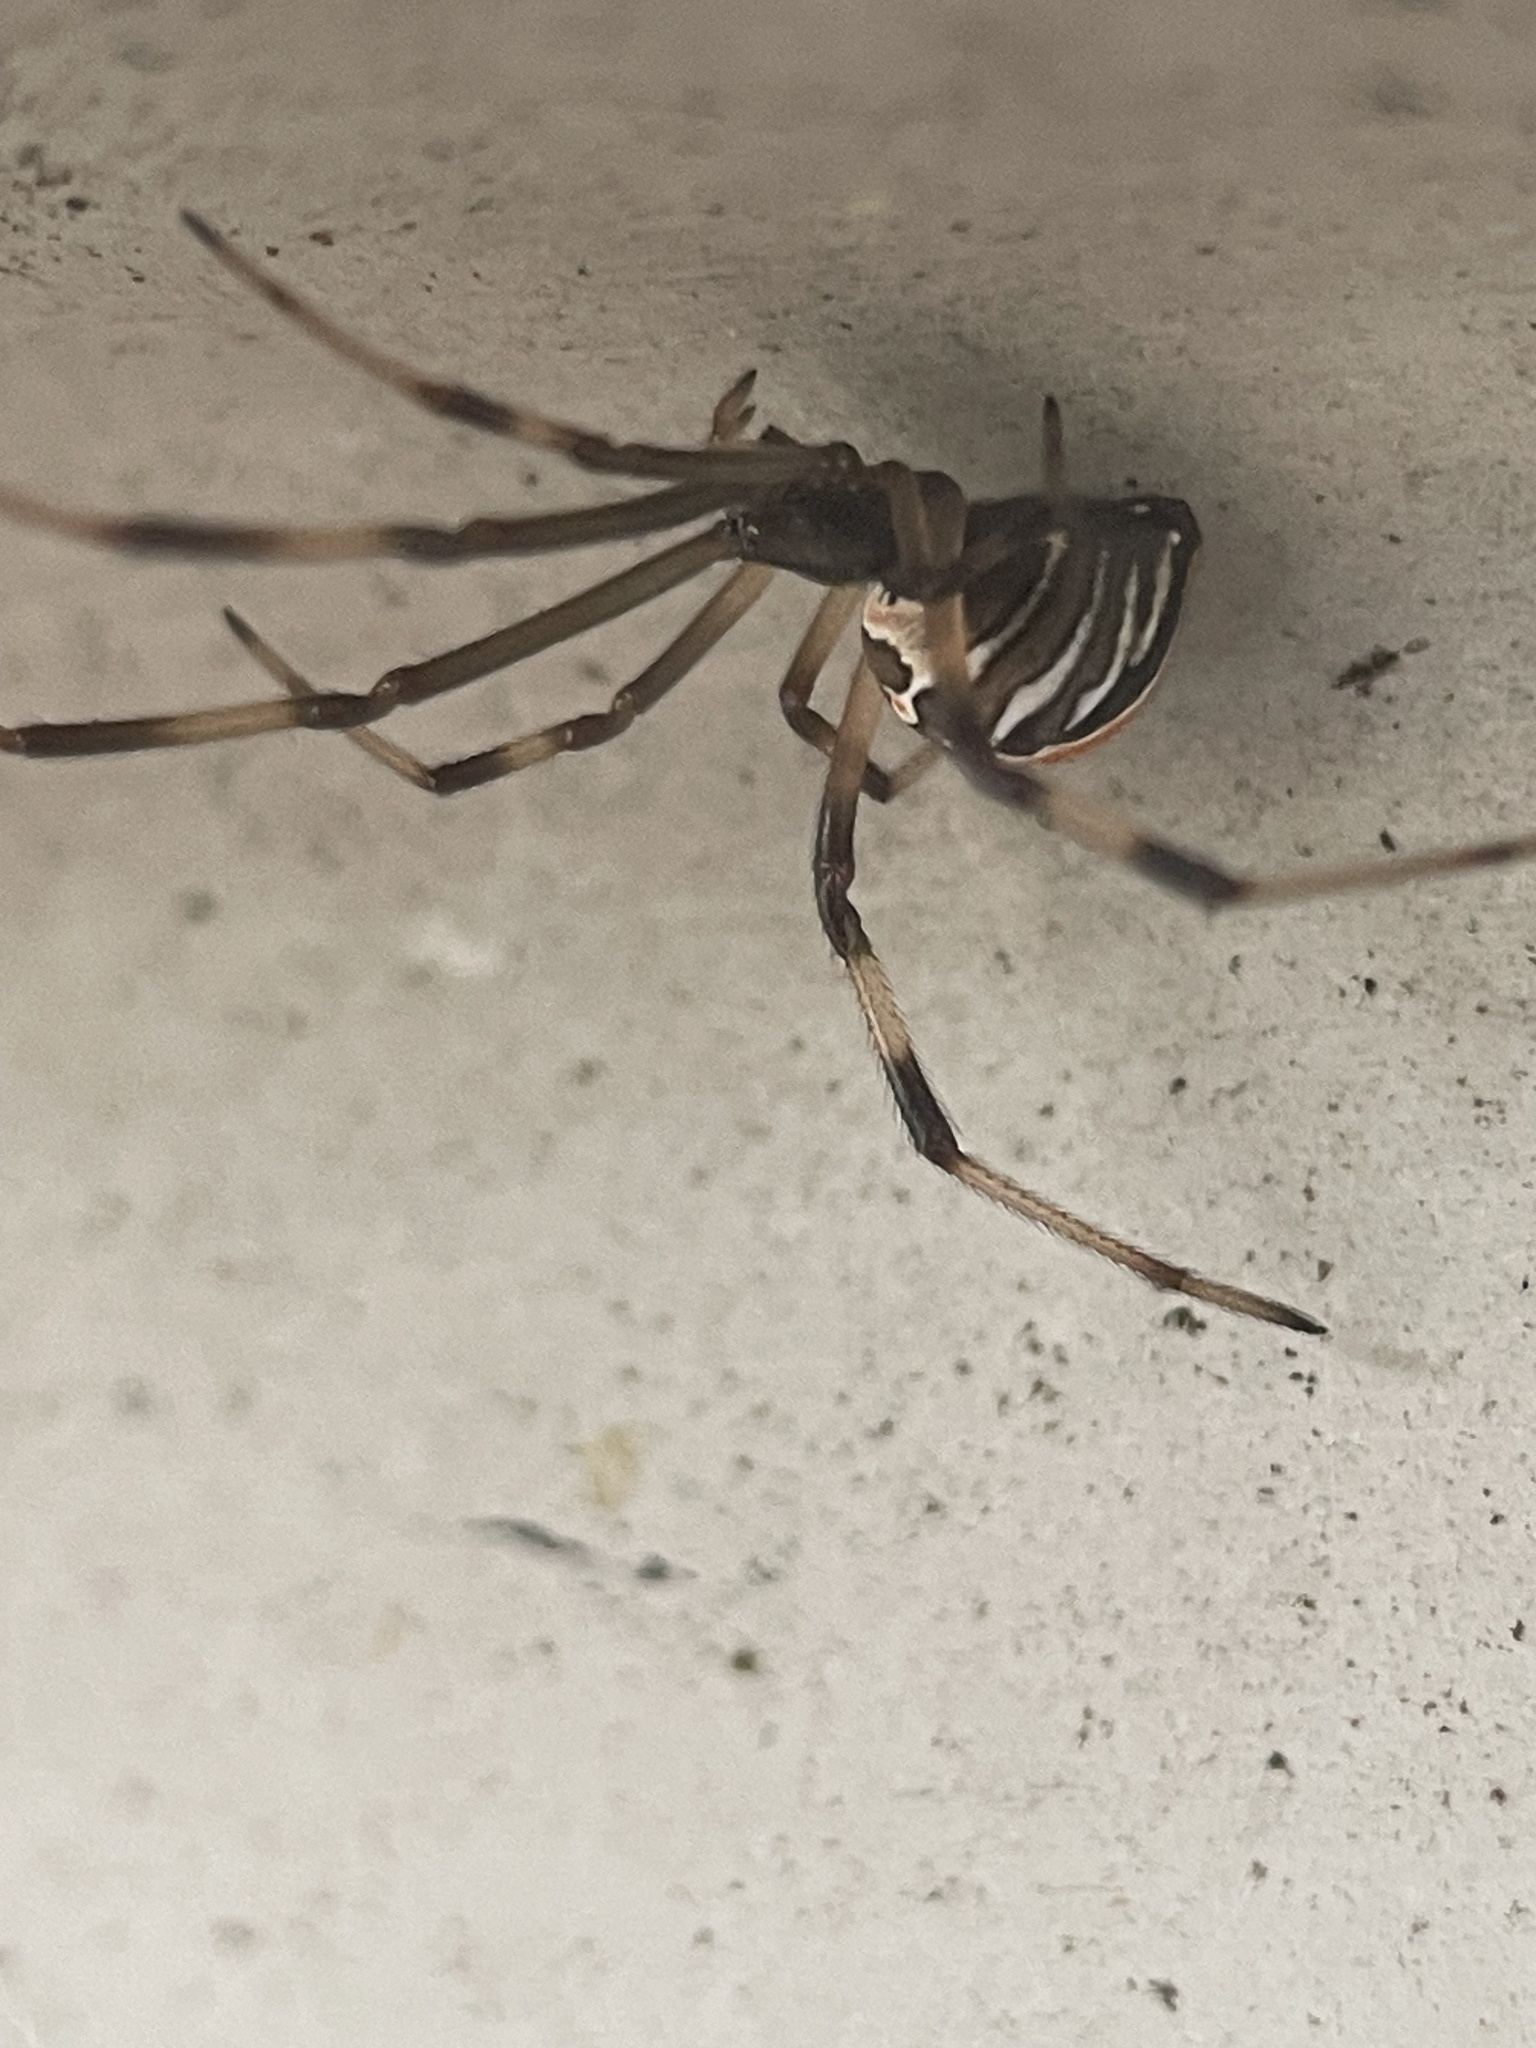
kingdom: Animalia
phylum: Arthropoda
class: Arachnida
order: Araneae
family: Theridiidae
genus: Latrodectus
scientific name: Latrodectus hasselti
